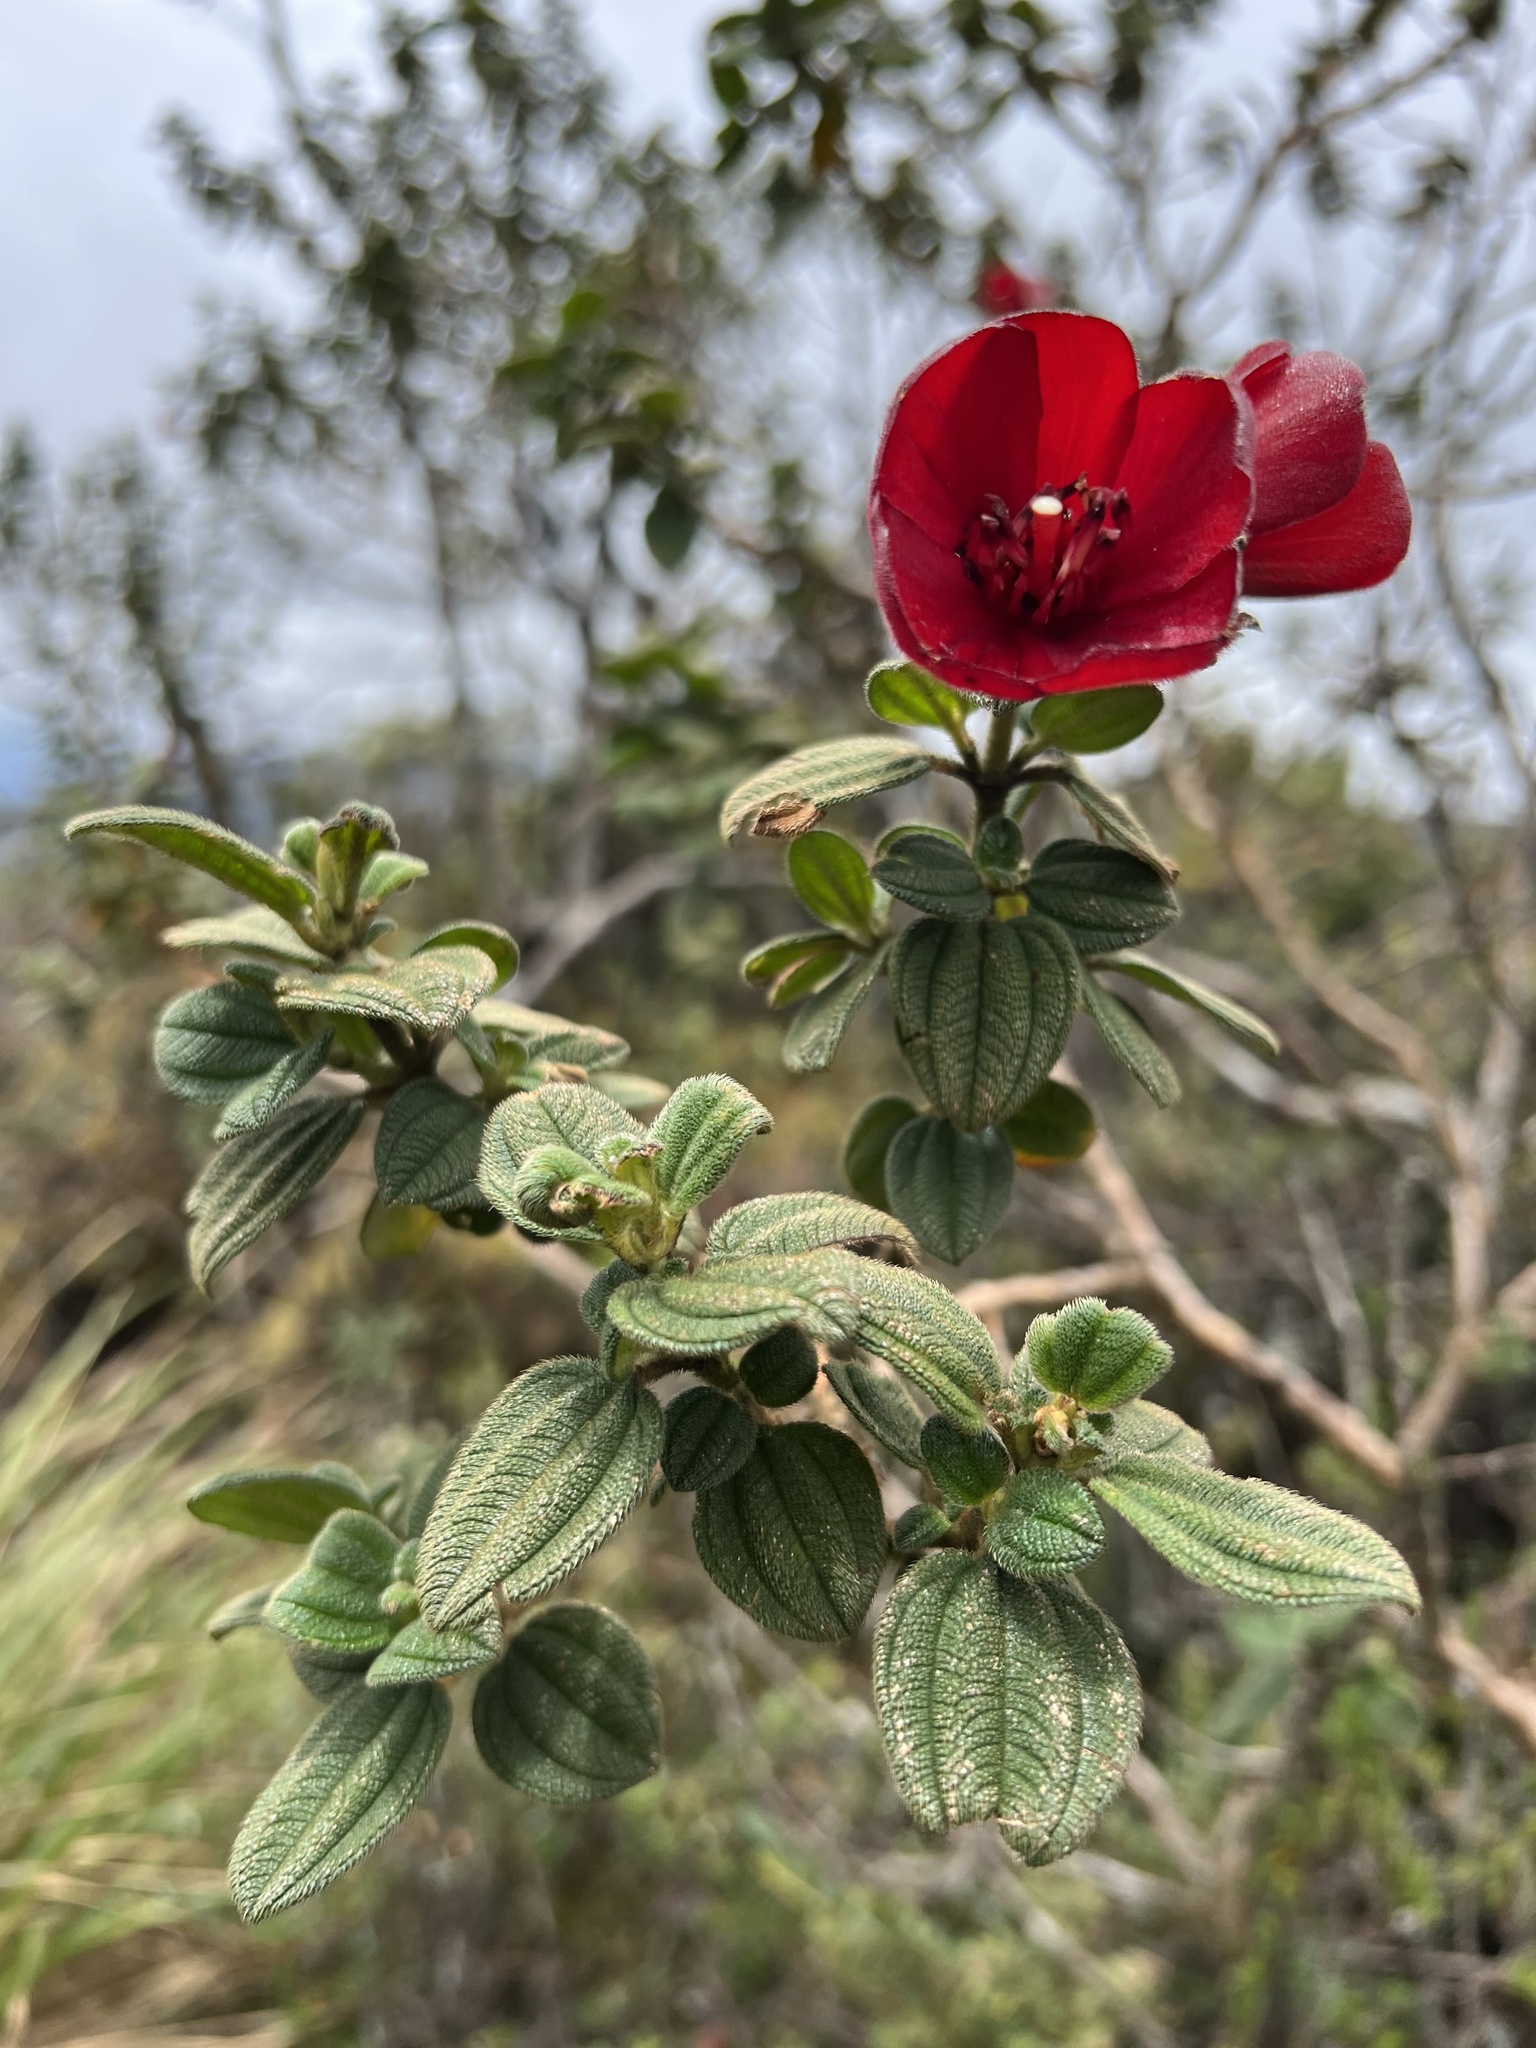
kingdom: Plantae
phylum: Tracheophyta
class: Magnoliopsida
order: Myrtales
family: Melastomataceae
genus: Chaetogastra
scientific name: Chaetogastra grossa
